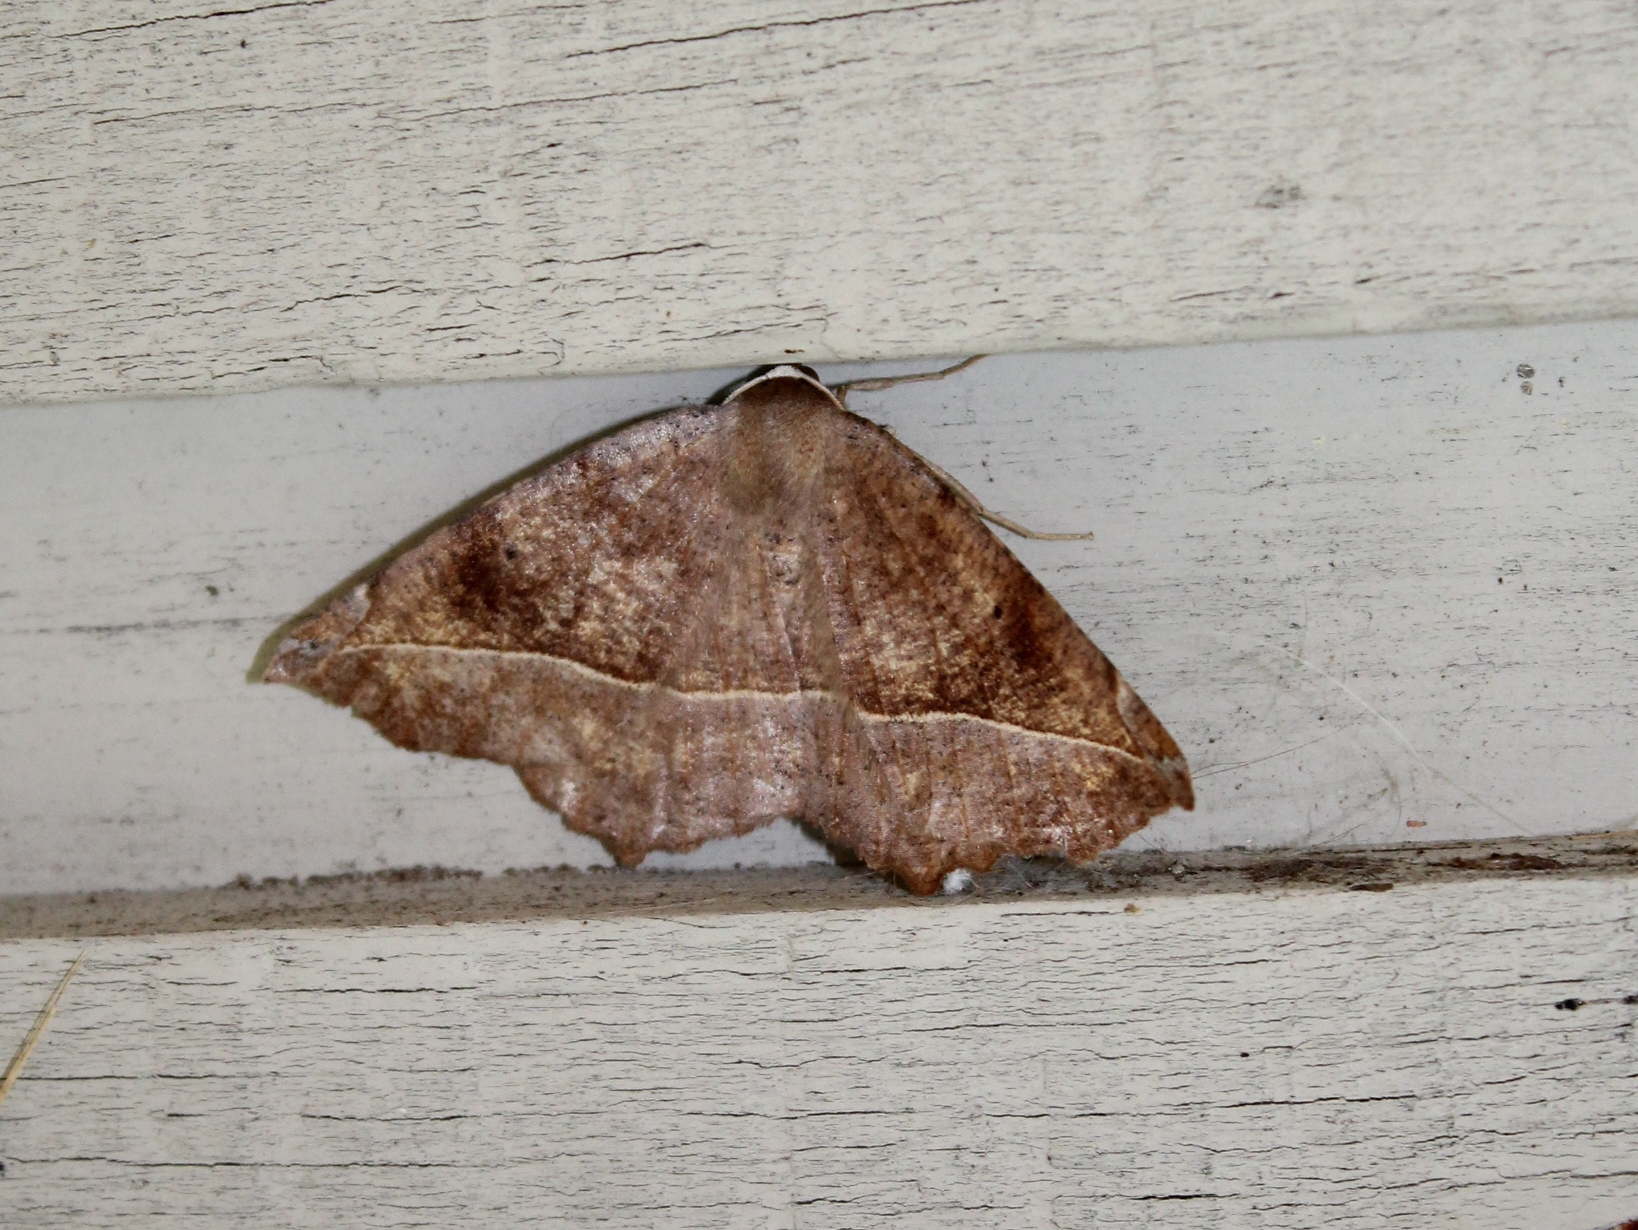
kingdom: Animalia
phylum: Arthropoda
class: Insecta
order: Lepidoptera
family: Geometridae
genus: Eutrapela
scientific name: Eutrapela clemataria
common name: Curved-toothed geometer
